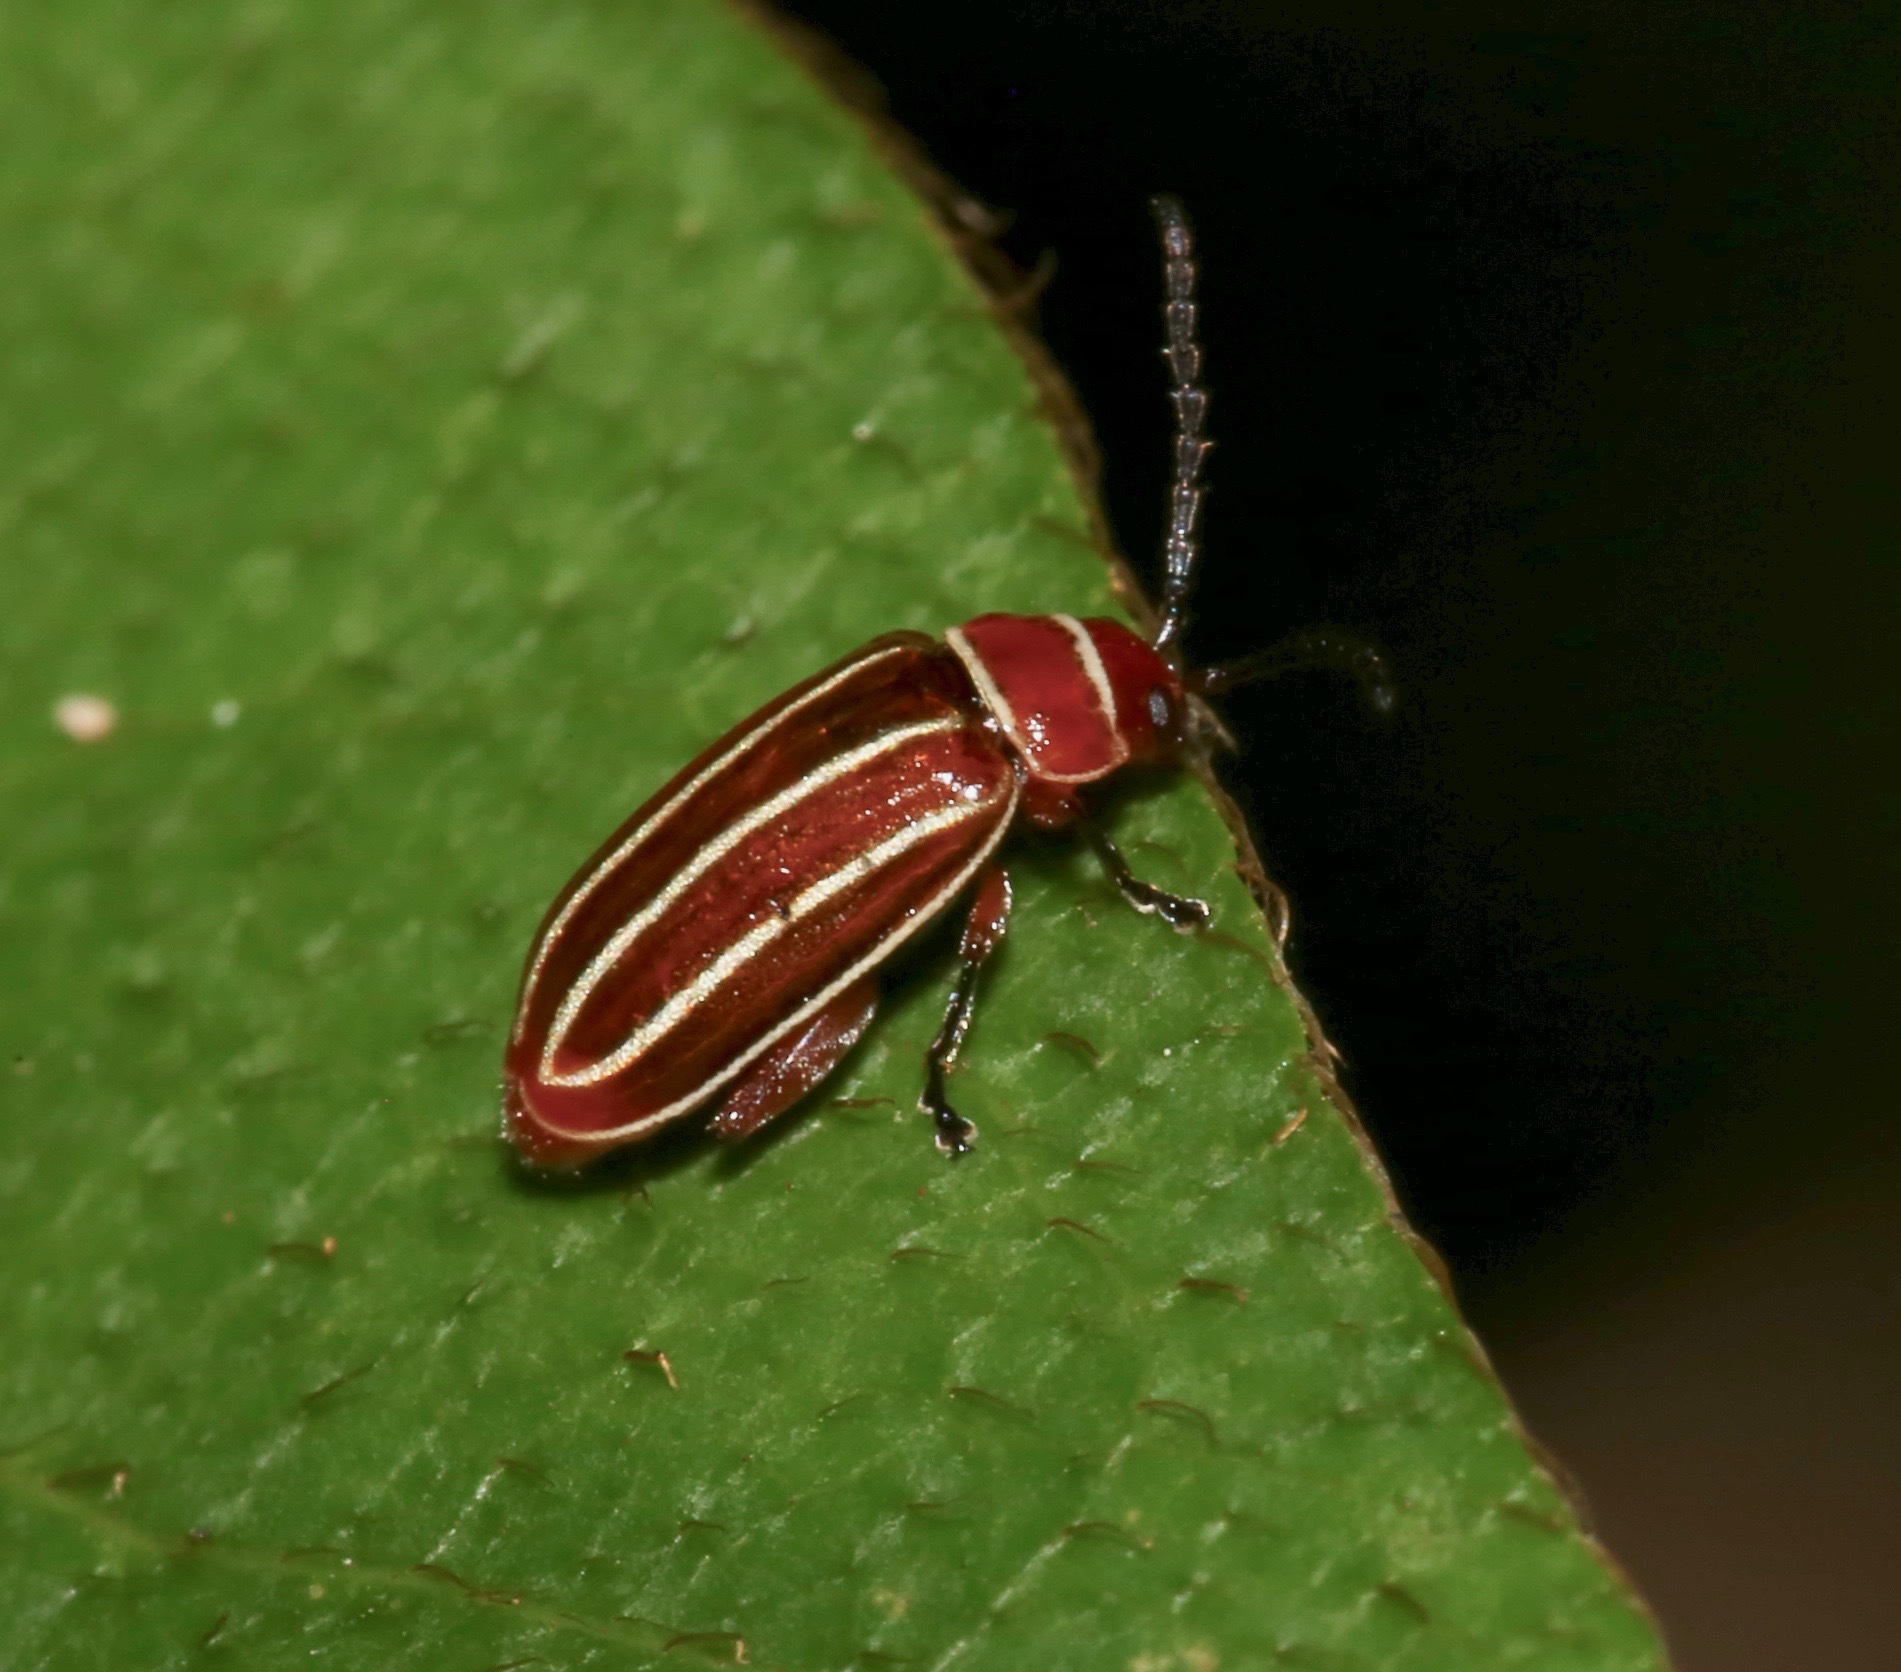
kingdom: Animalia
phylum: Arthropoda
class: Insecta
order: Coleoptera
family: Chrysomelidae
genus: Disonycha
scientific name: Disonycha conjugata
